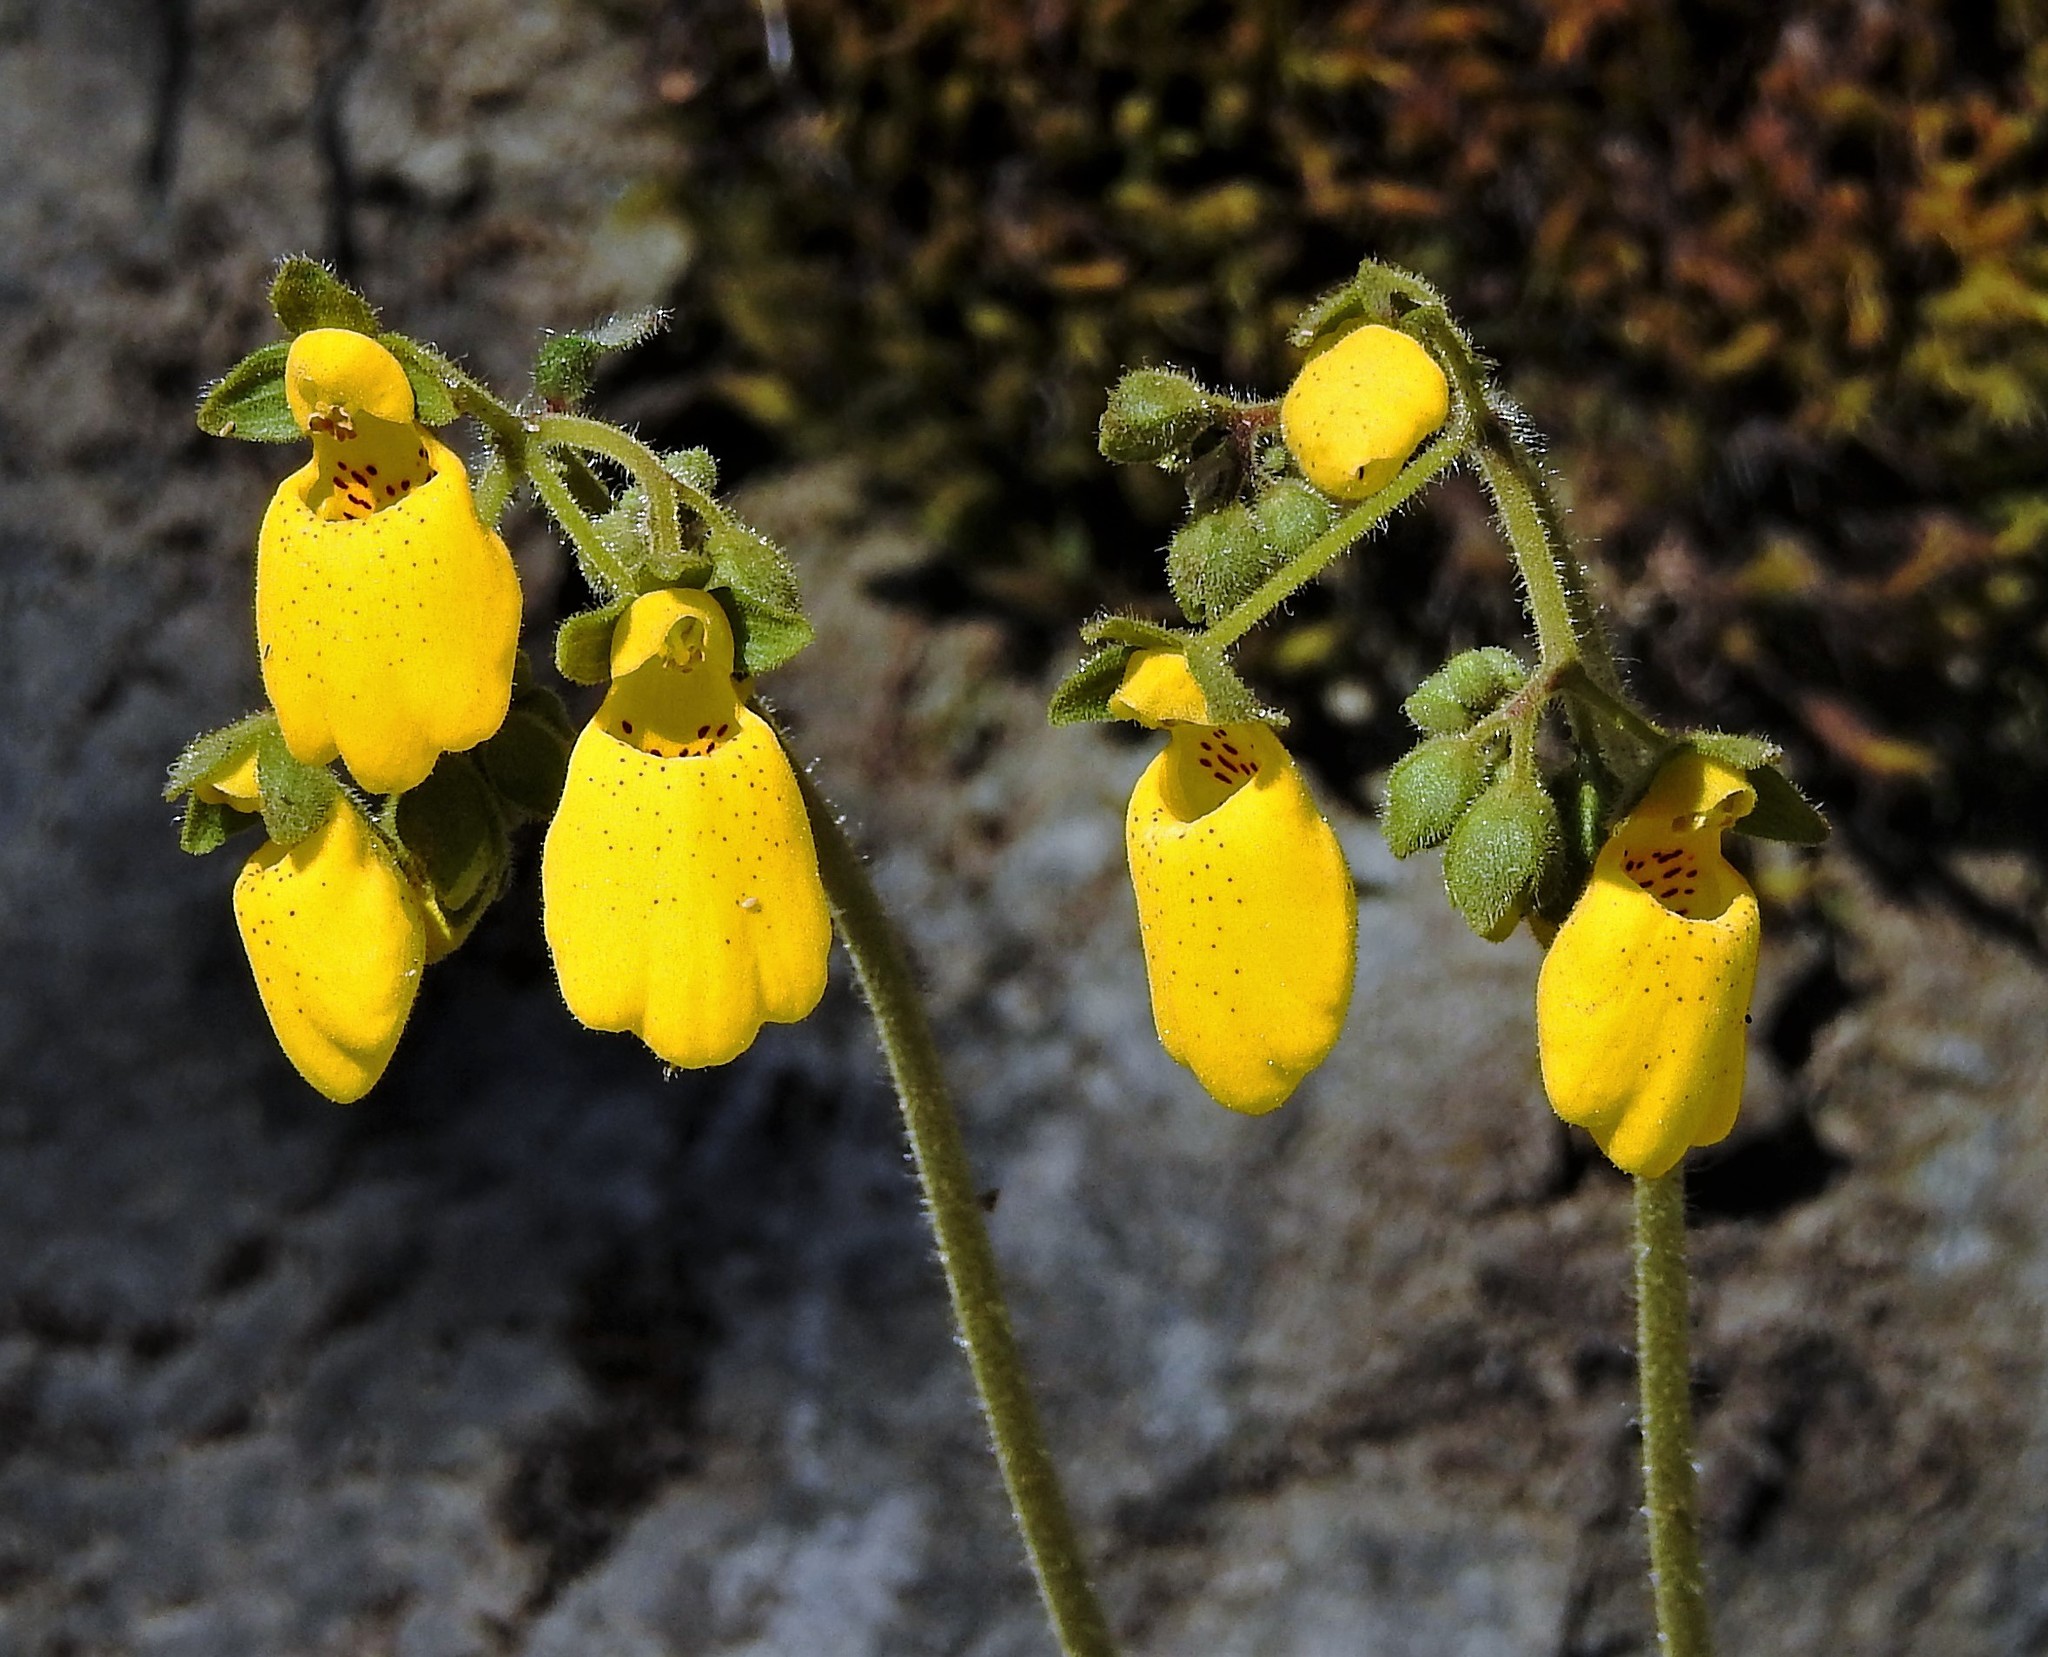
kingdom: Plantae
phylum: Tracheophyta
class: Magnoliopsida
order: Lamiales
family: Calceolariaceae
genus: Calceolaria
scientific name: Calceolaria crenatiflora
